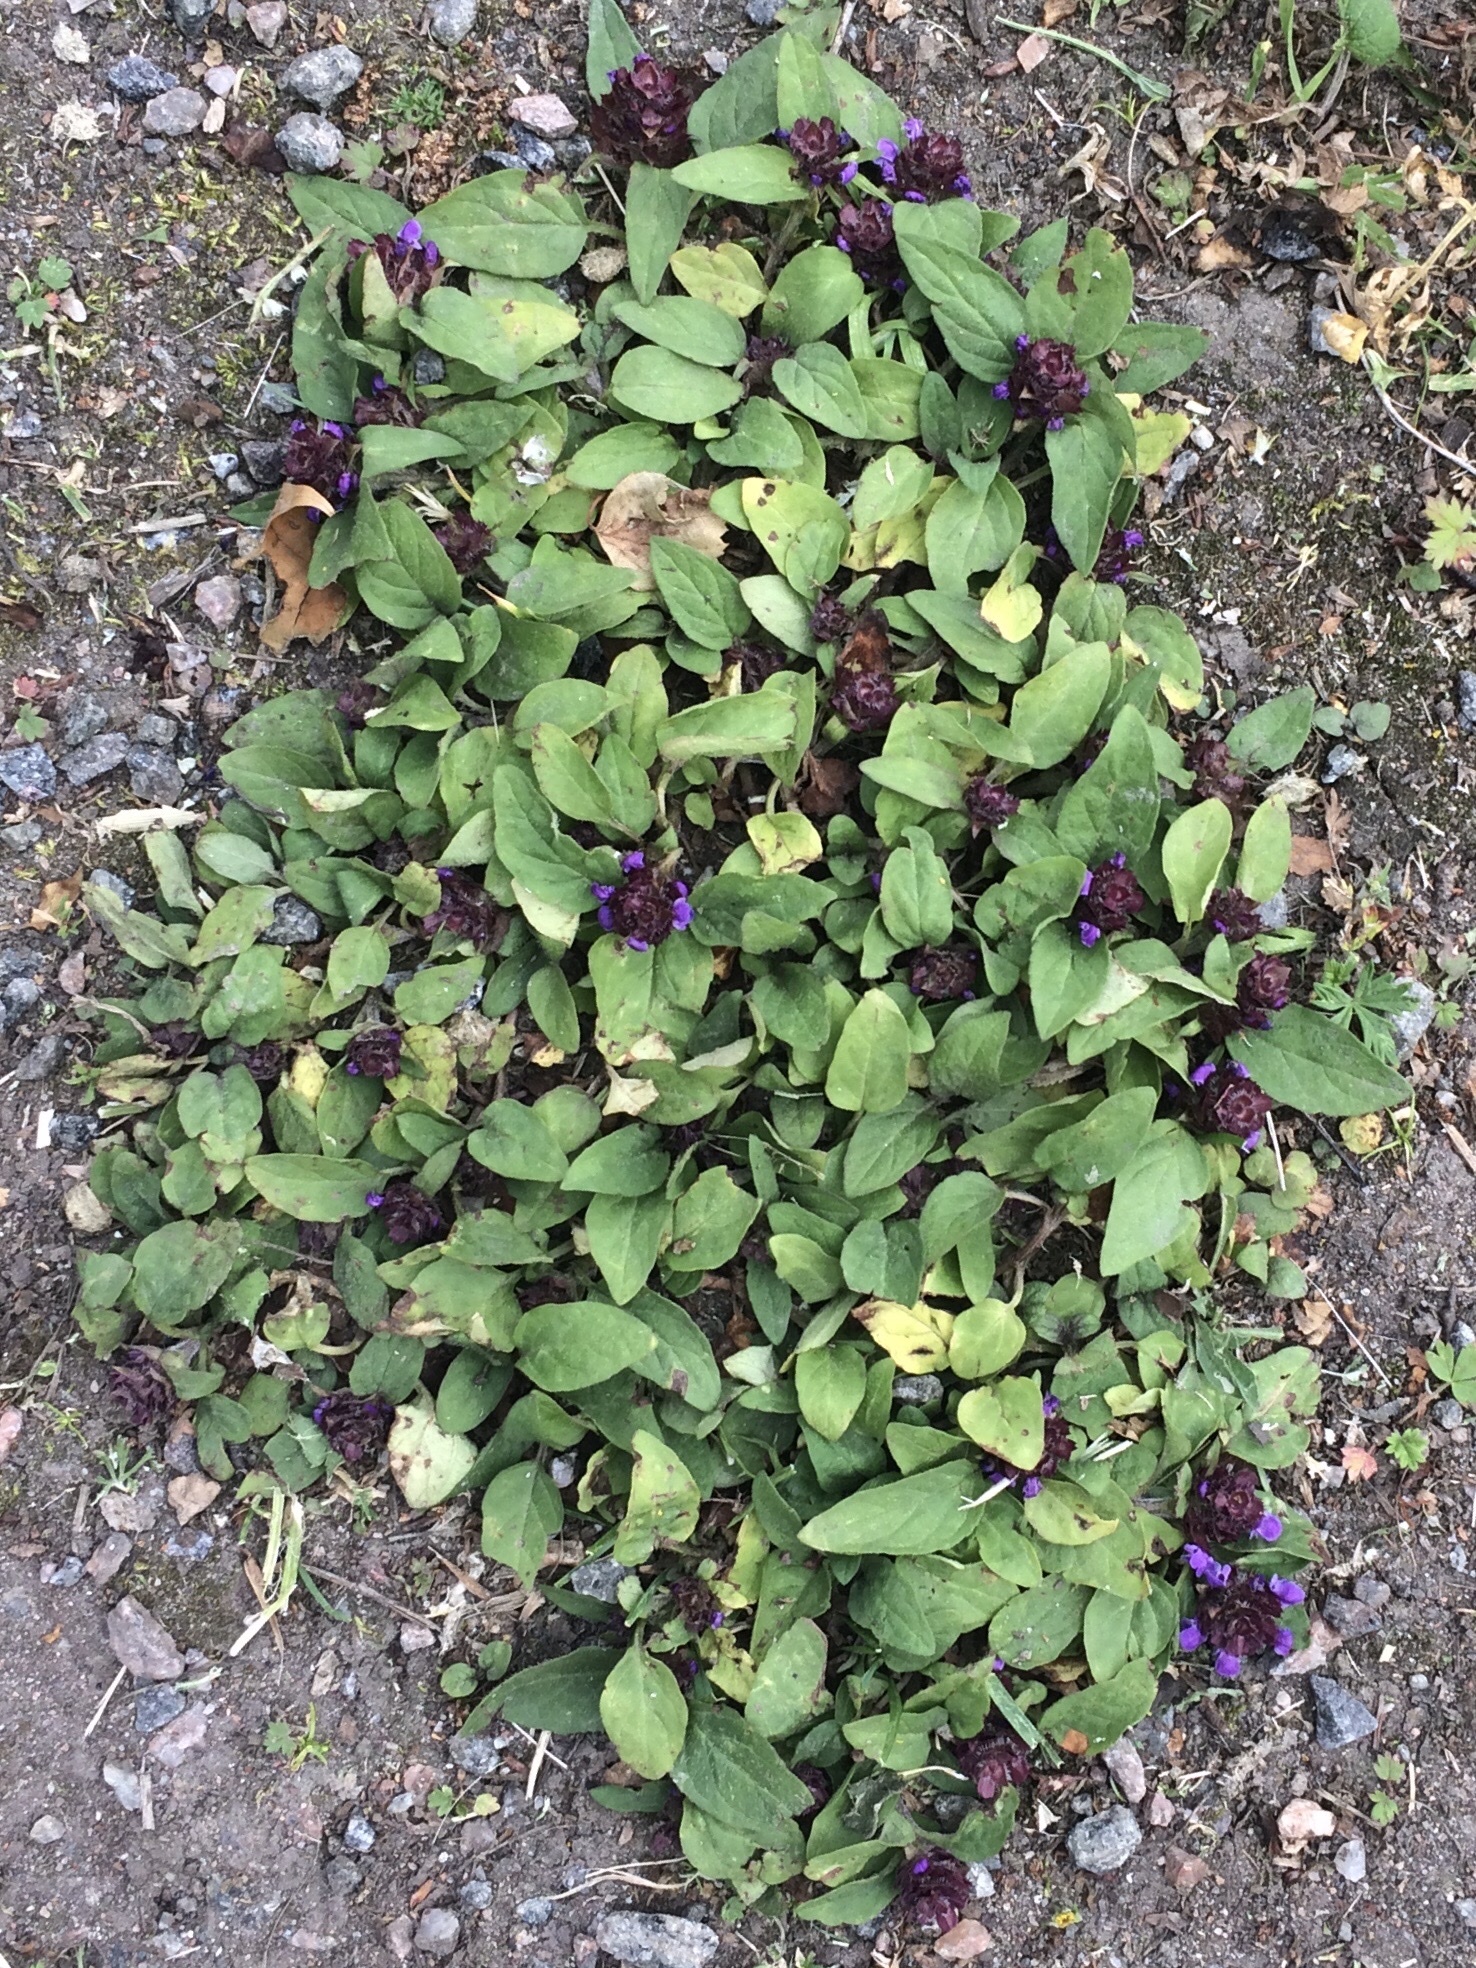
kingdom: Plantae
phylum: Tracheophyta
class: Magnoliopsida
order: Lamiales
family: Lamiaceae
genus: Prunella
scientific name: Prunella vulgaris
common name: Heal-all
